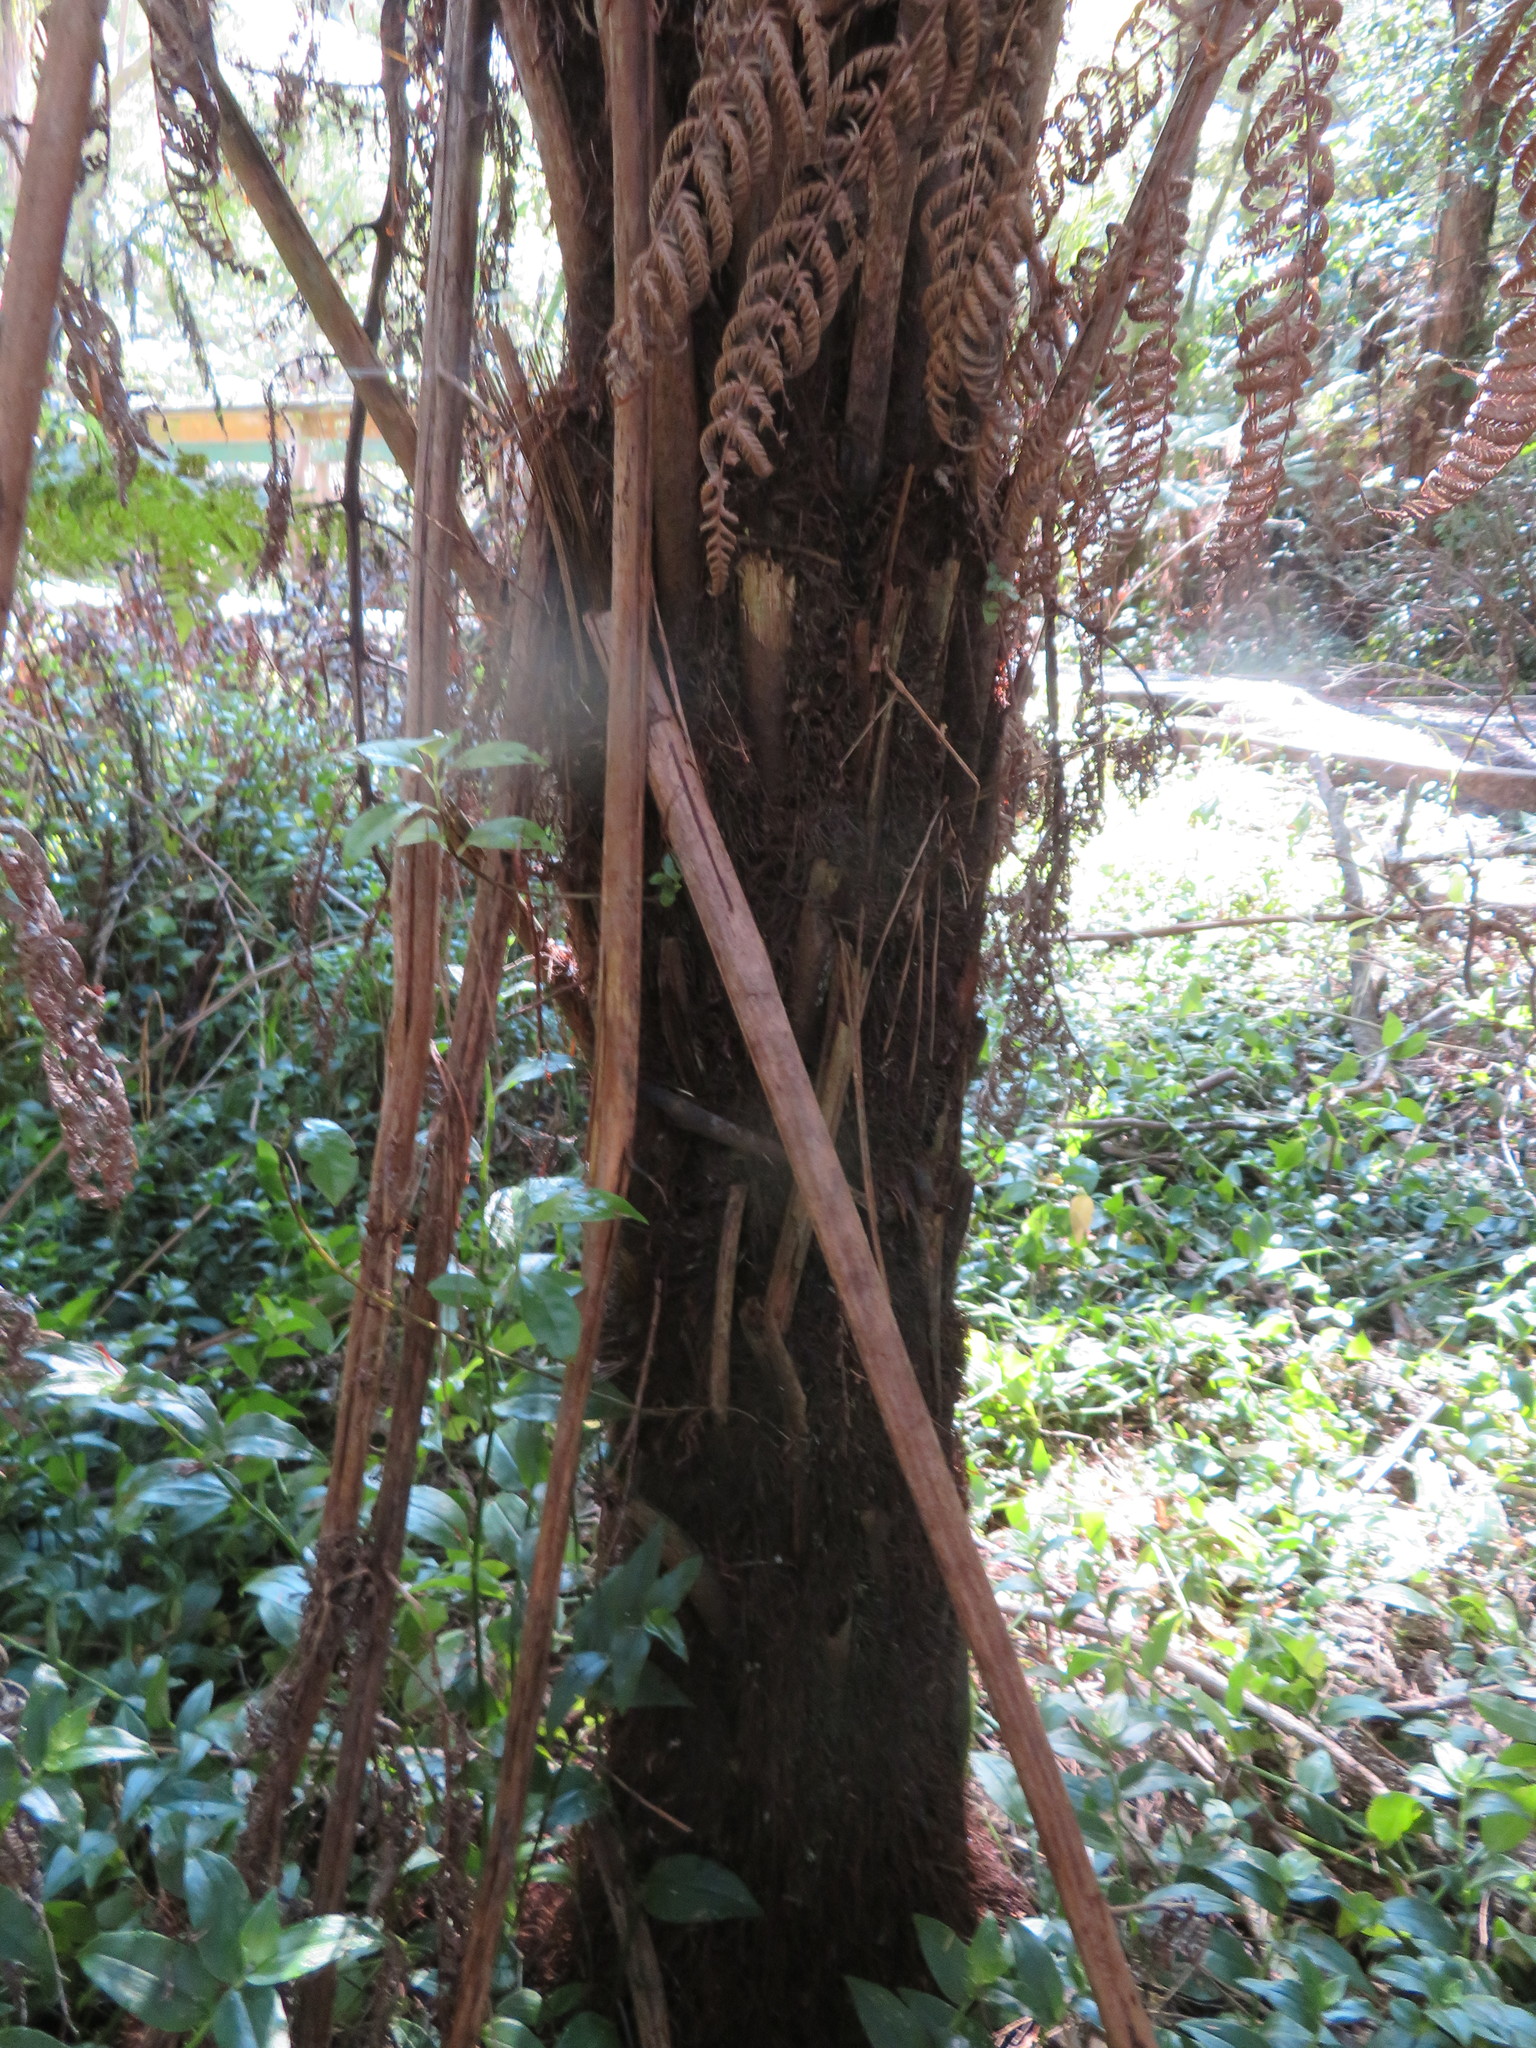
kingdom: Plantae
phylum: Tracheophyta
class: Liliopsida
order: Commelinales
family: Commelinaceae
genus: Tradescantia
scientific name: Tradescantia fluminensis
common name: Wandering-jew
